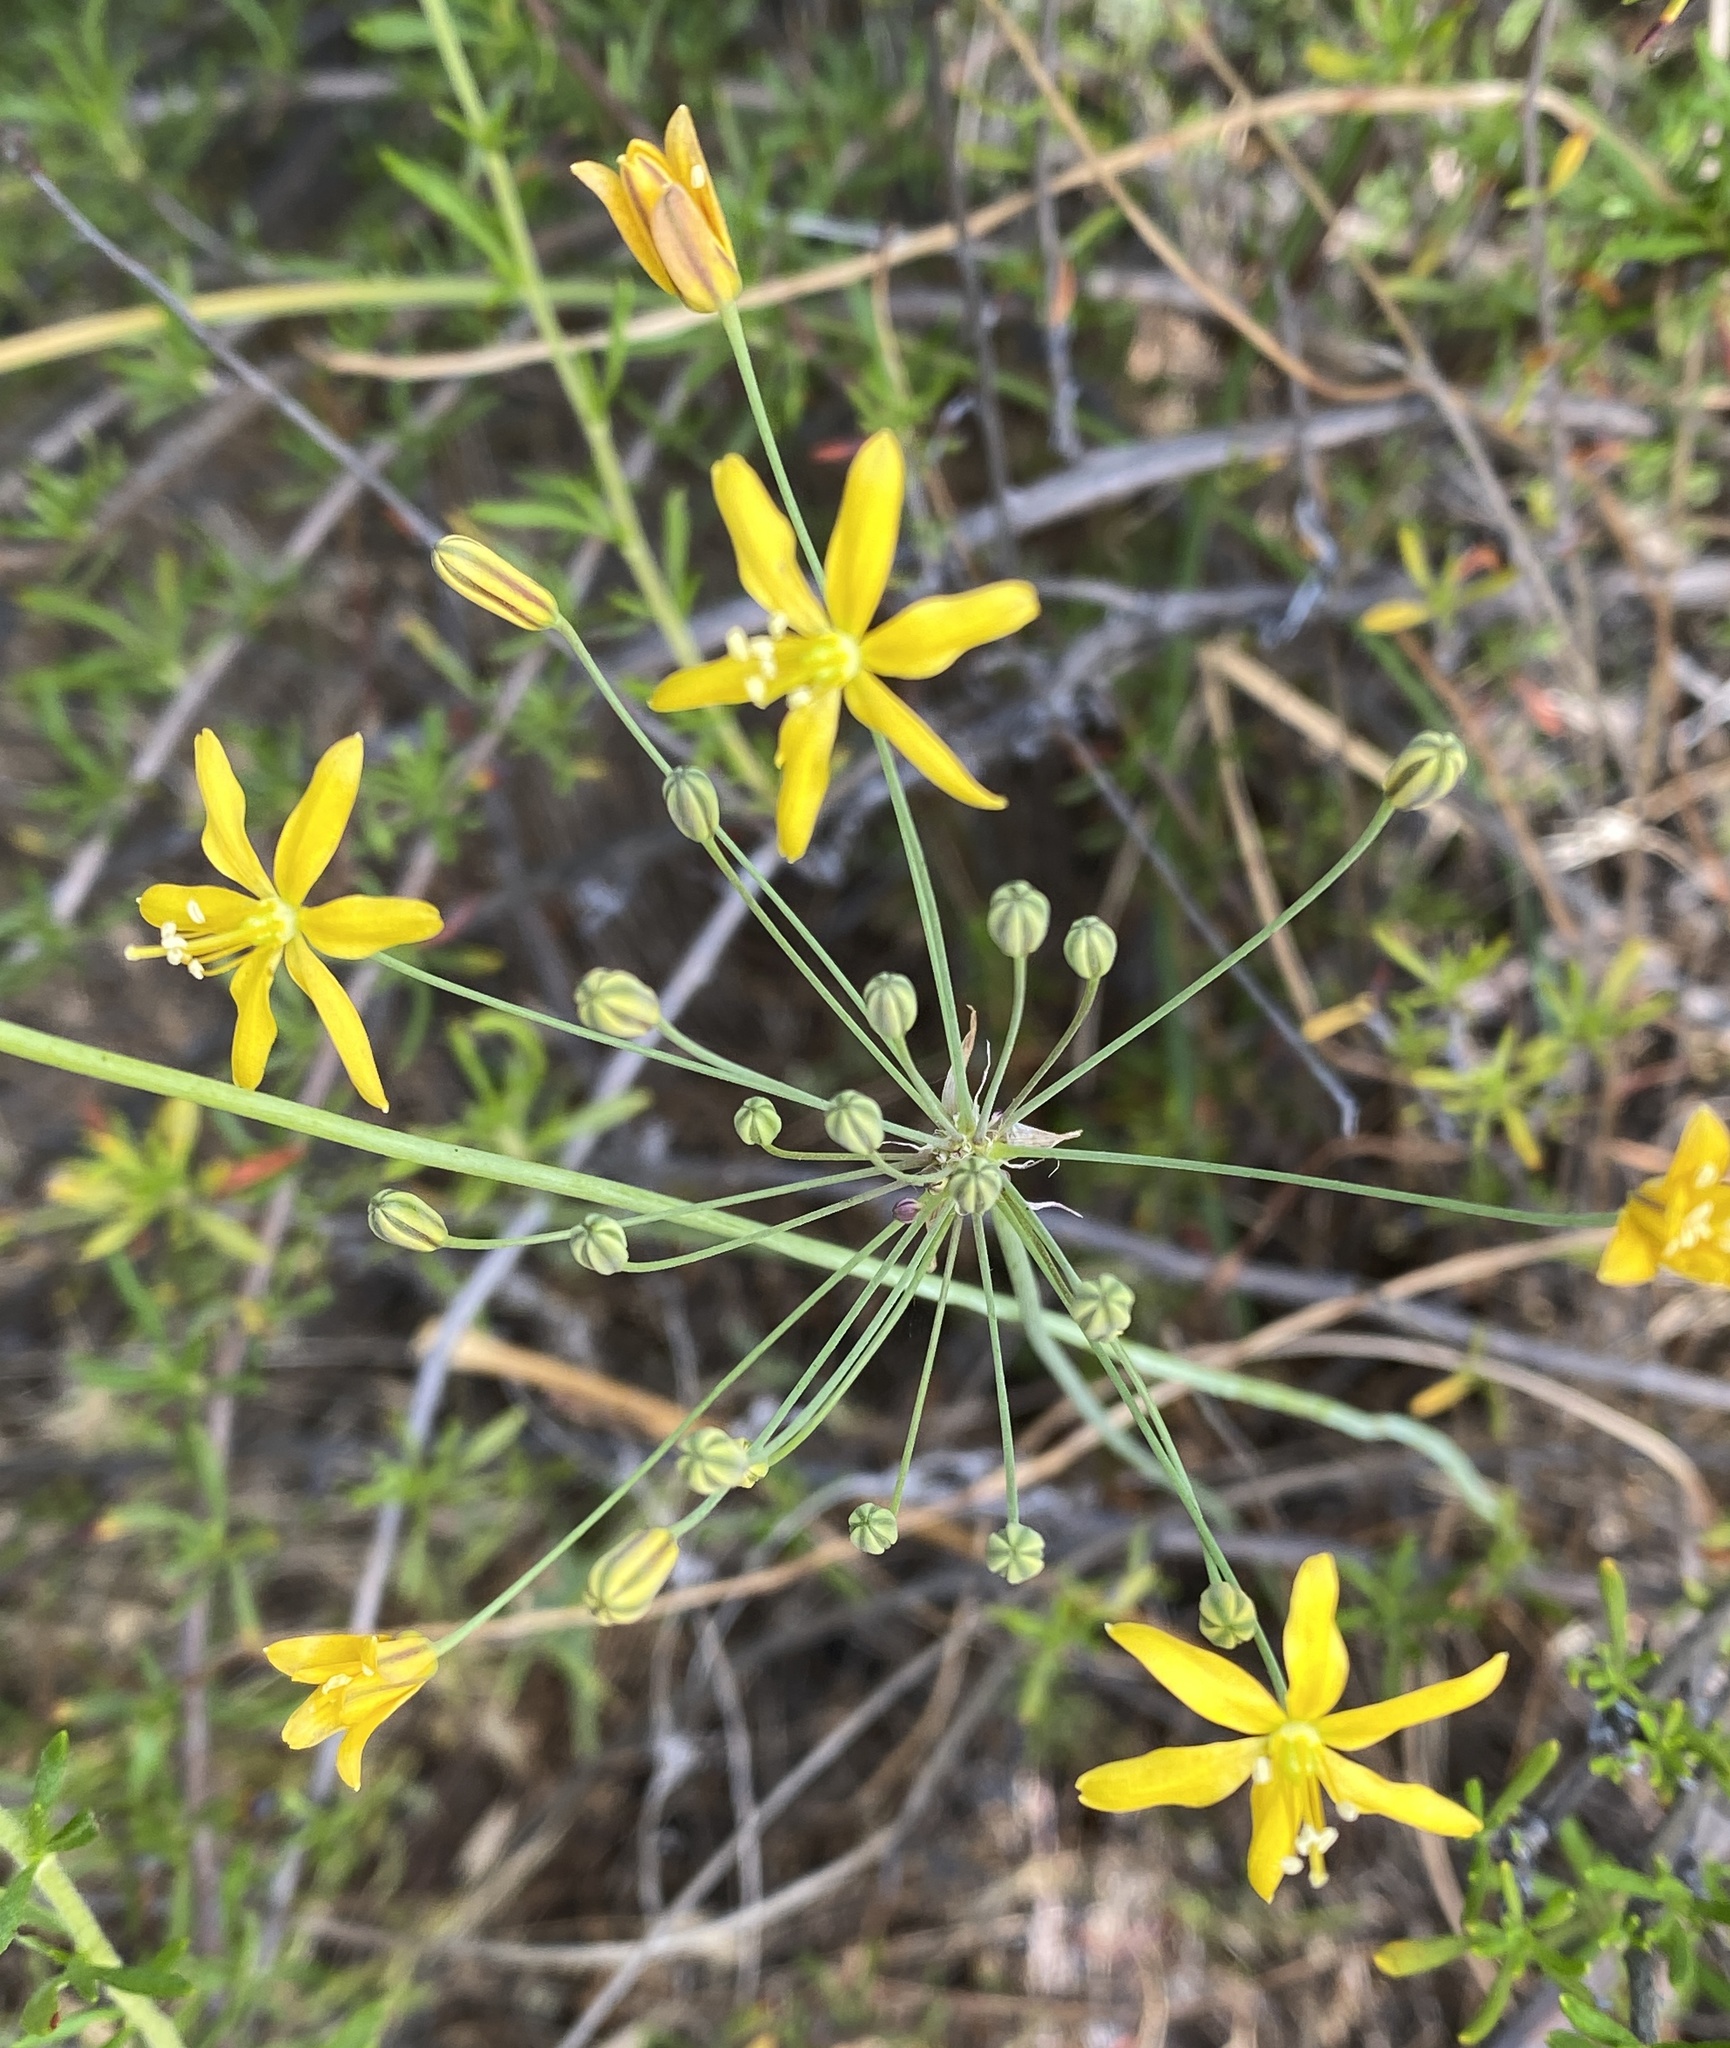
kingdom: Plantae
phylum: Tracheophyta
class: Liliopsida
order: Asparagales
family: Asparagaceae
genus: Bloomeria
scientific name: Bloomeria crocea
